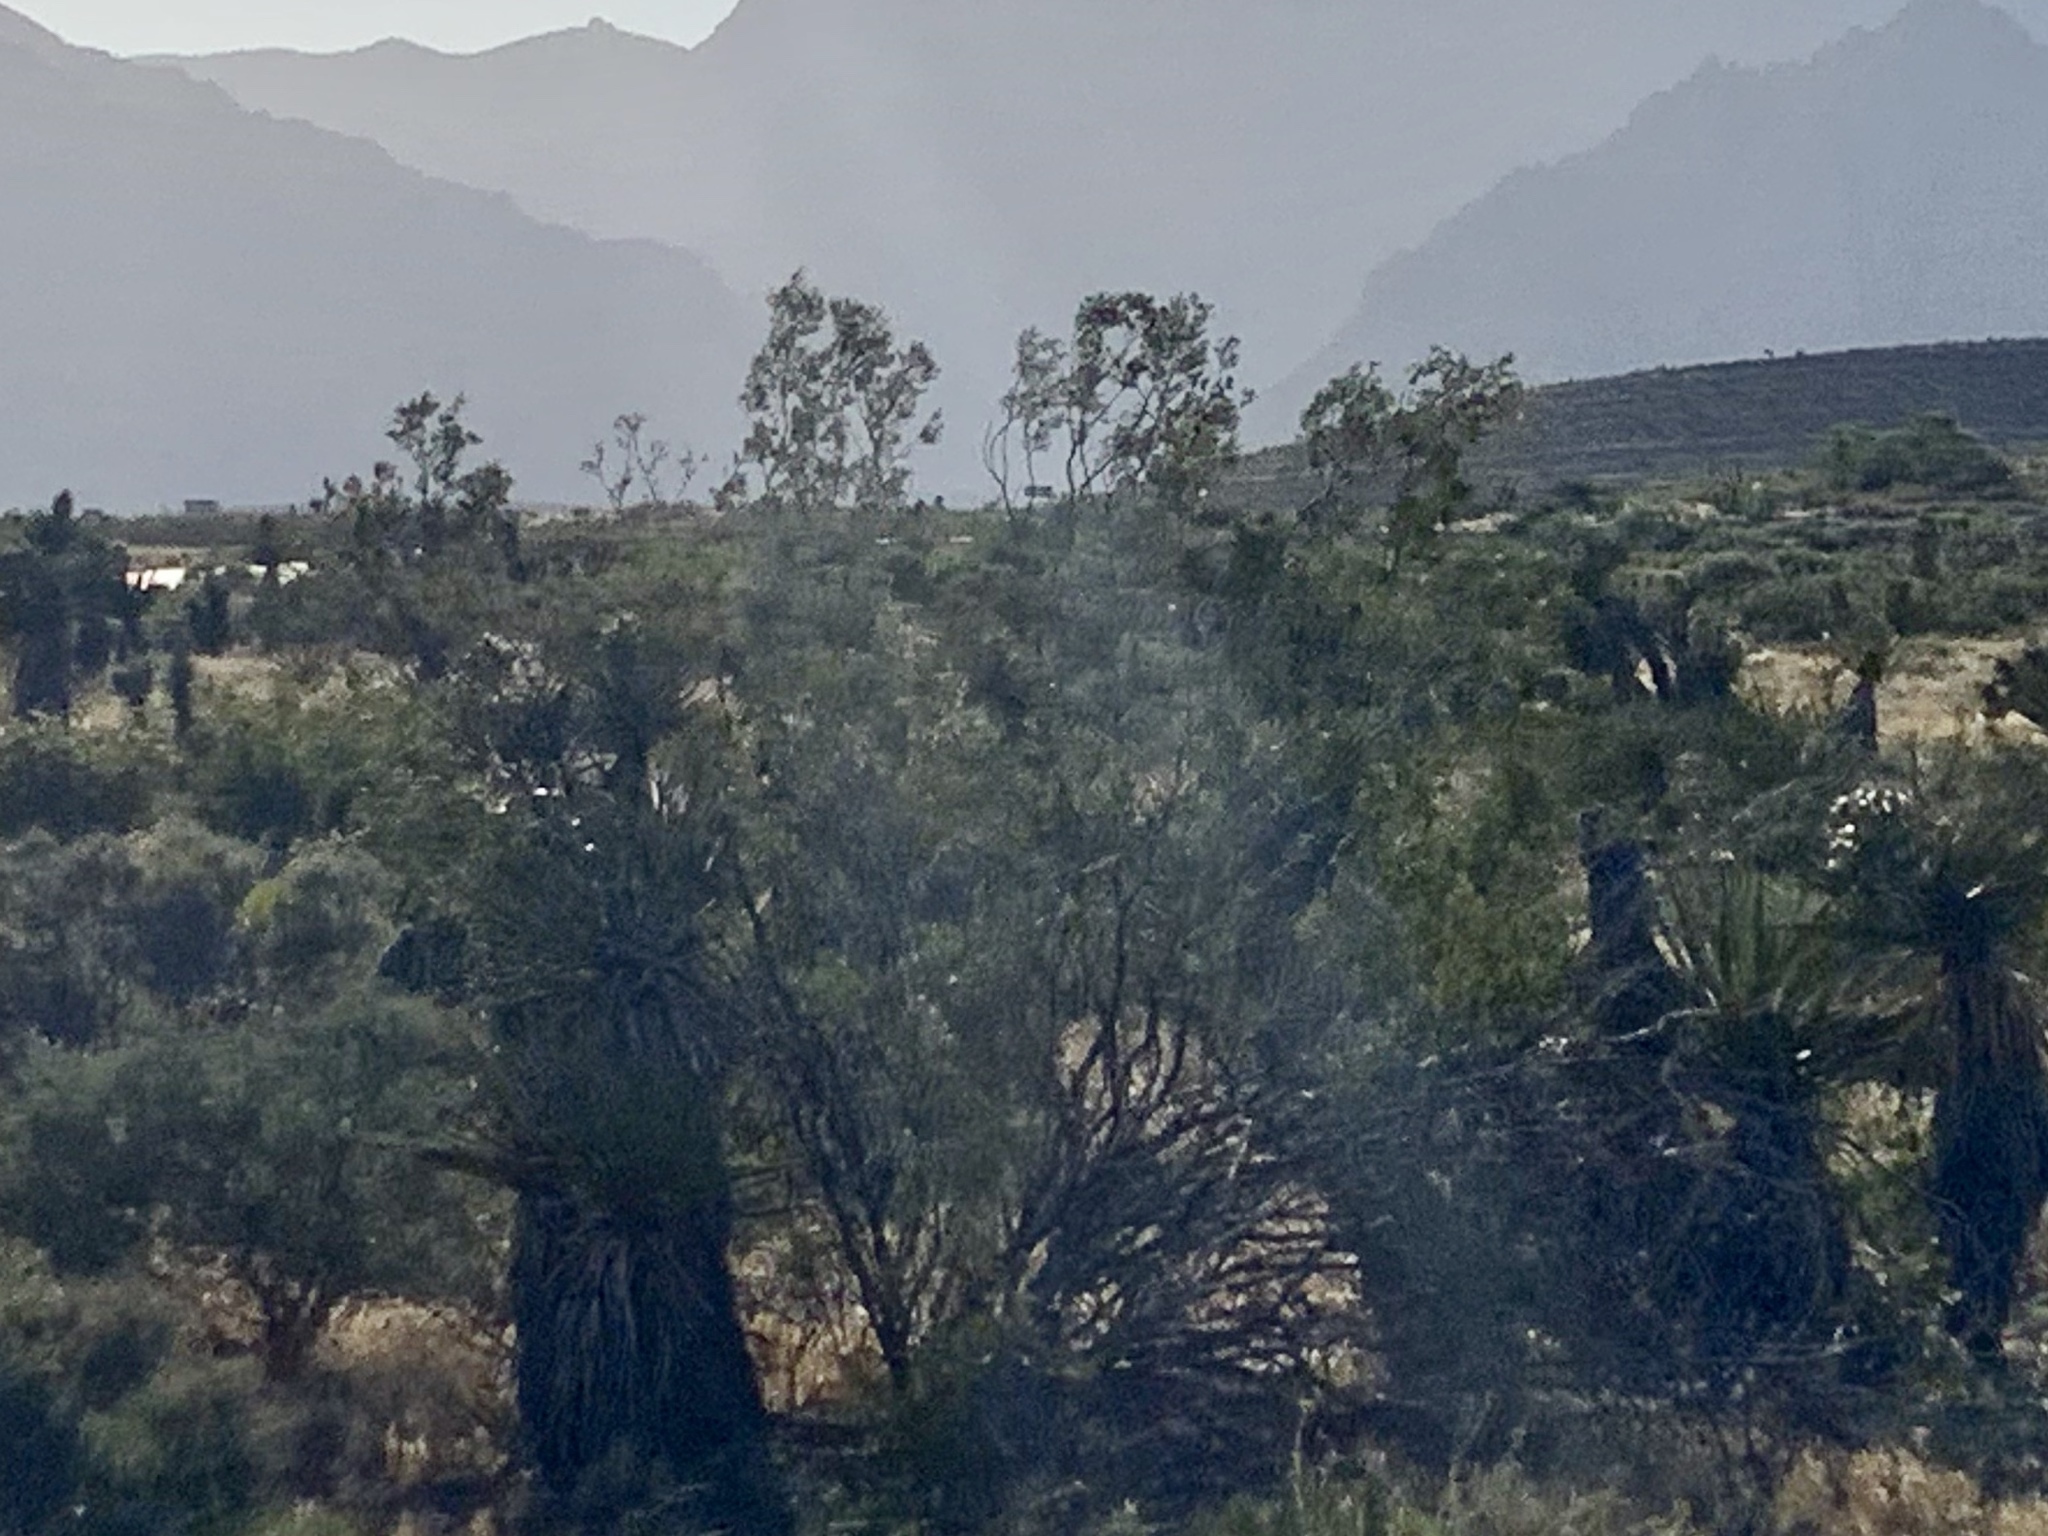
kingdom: Plantae
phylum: Tracheophyta
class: Magnoliopsida
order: Zygophyllales
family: Zygophyllaceae
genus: Larrea
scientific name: Larrea tridentata
